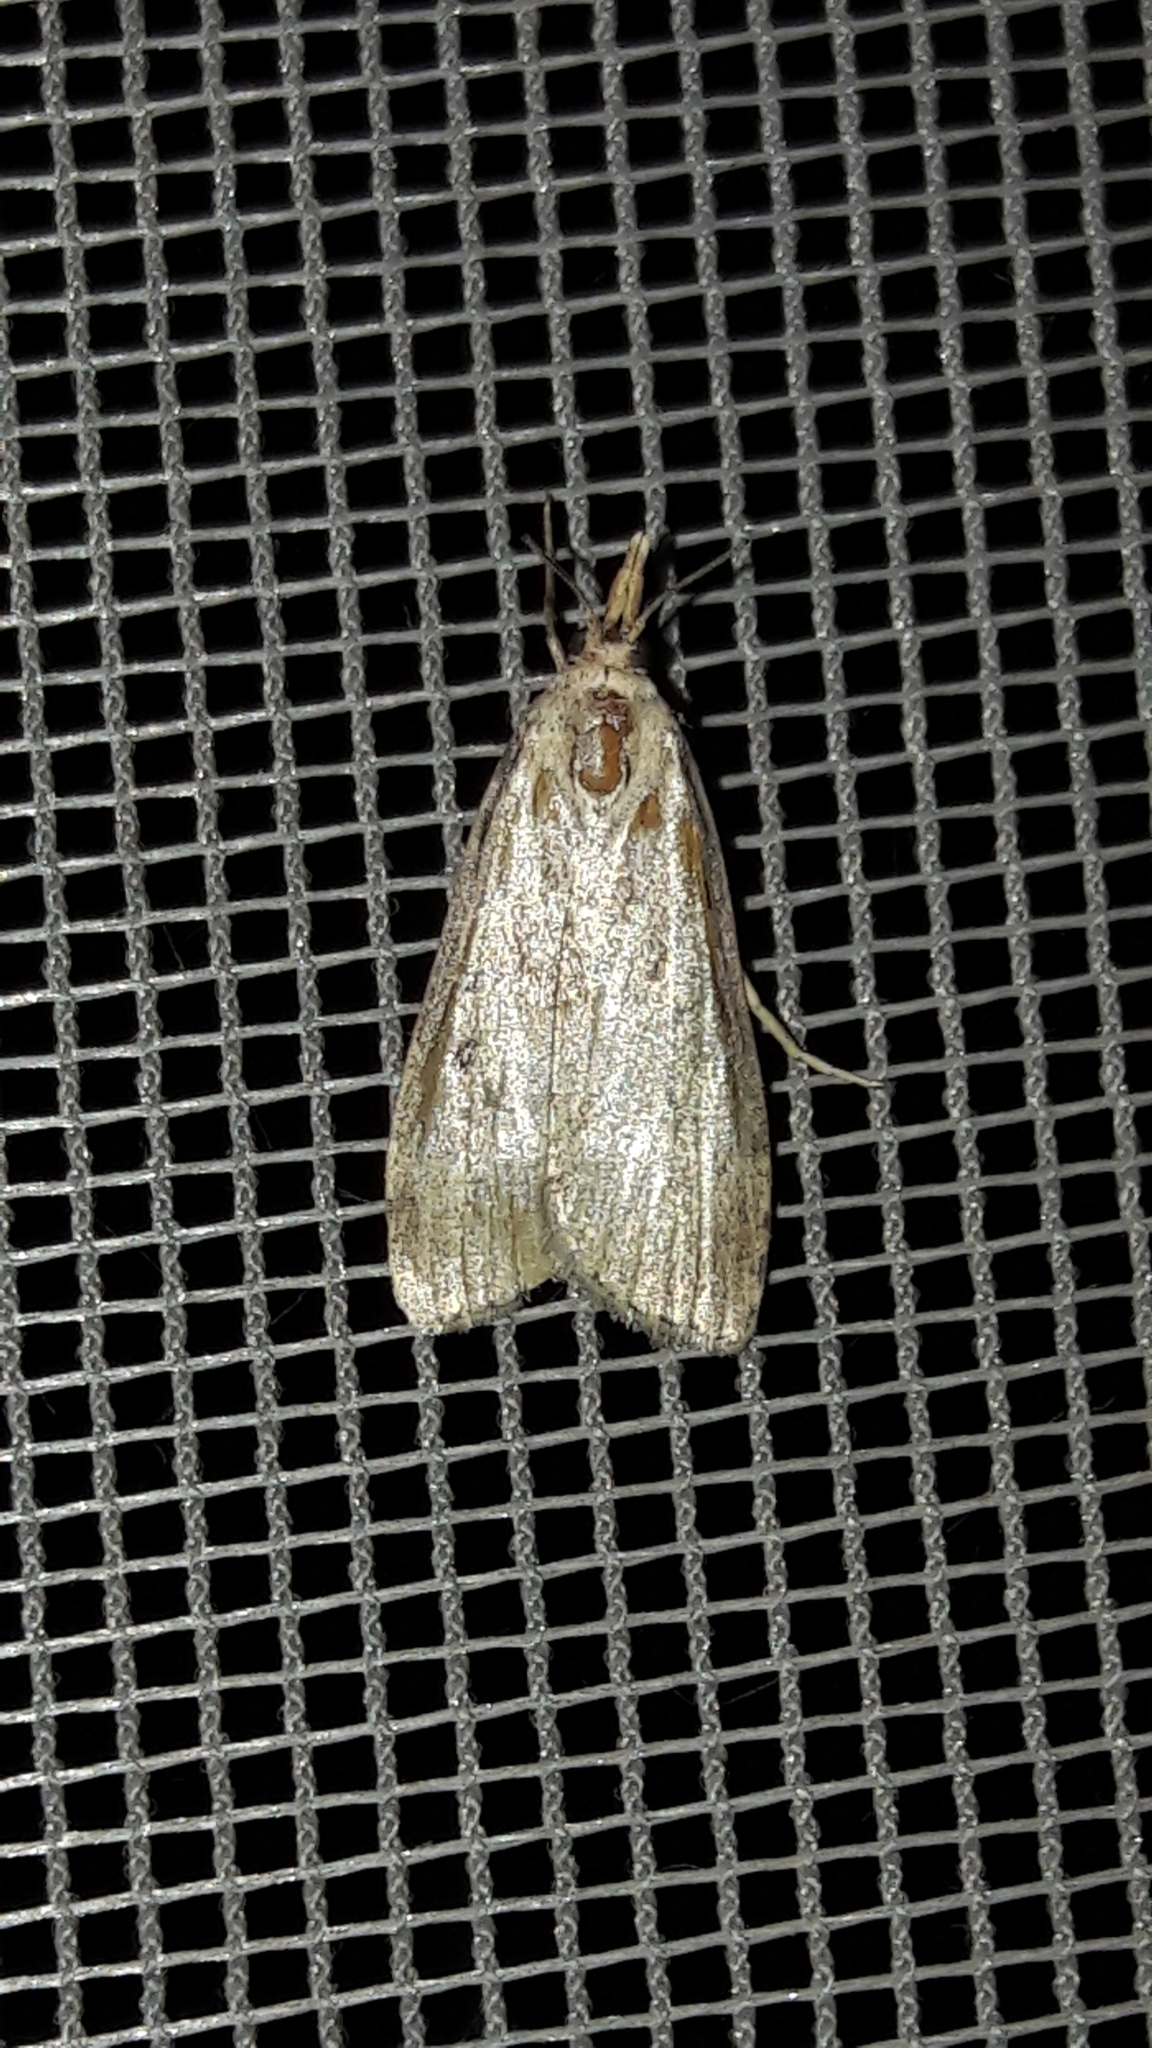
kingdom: Animalia
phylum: Arthropoda
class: Insecta
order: Lepidoptera
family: Pyralidae
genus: Aphomia
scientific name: Aphomia sociella
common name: Bee moth
